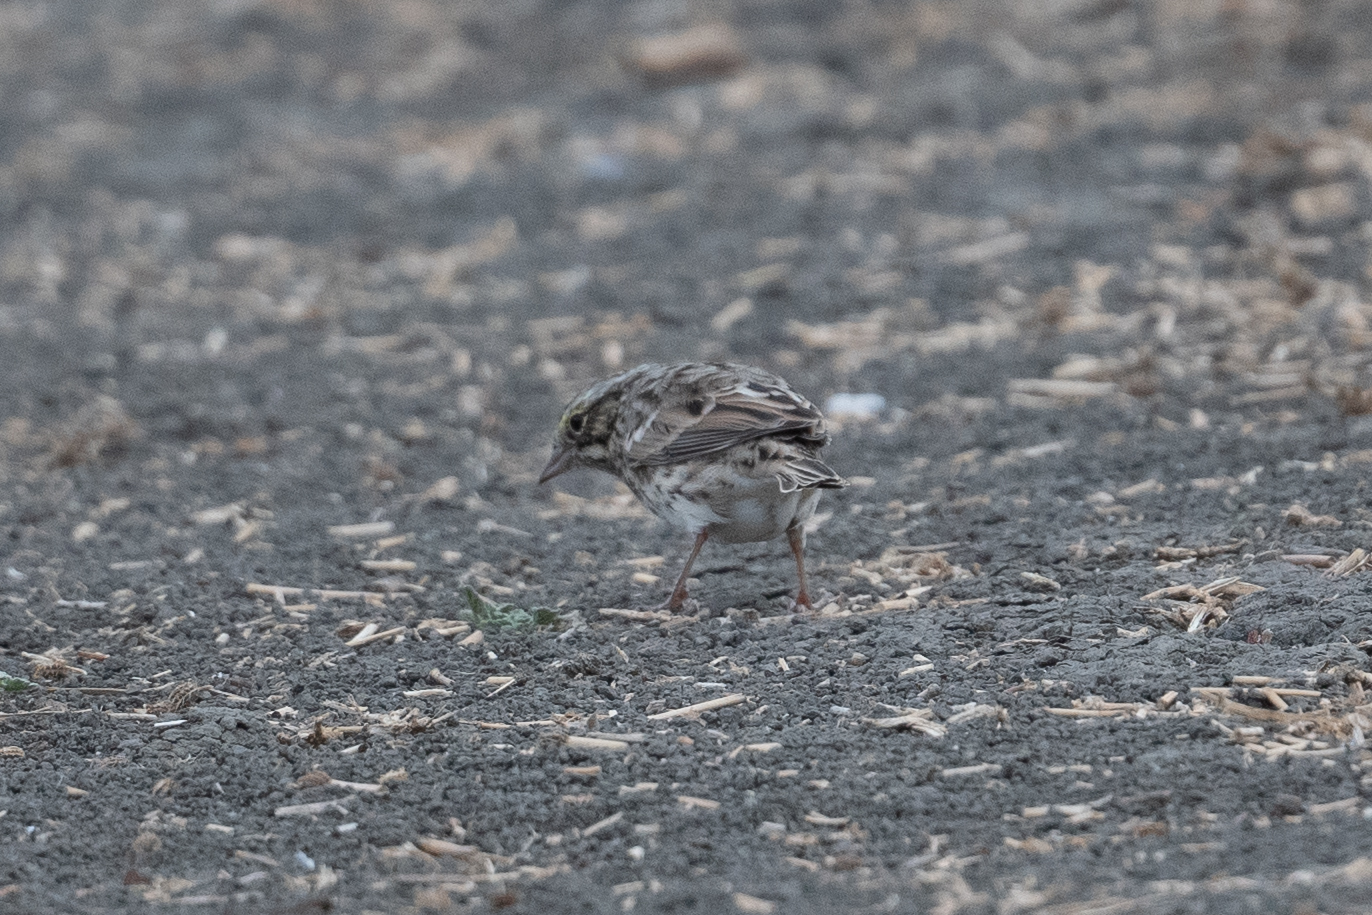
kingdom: Animalia
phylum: Chordata
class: Aves
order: Passeriformes
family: Passerellidae
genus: Passerculus
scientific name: Passerculus sandwichensis
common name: Savannah sparrow
